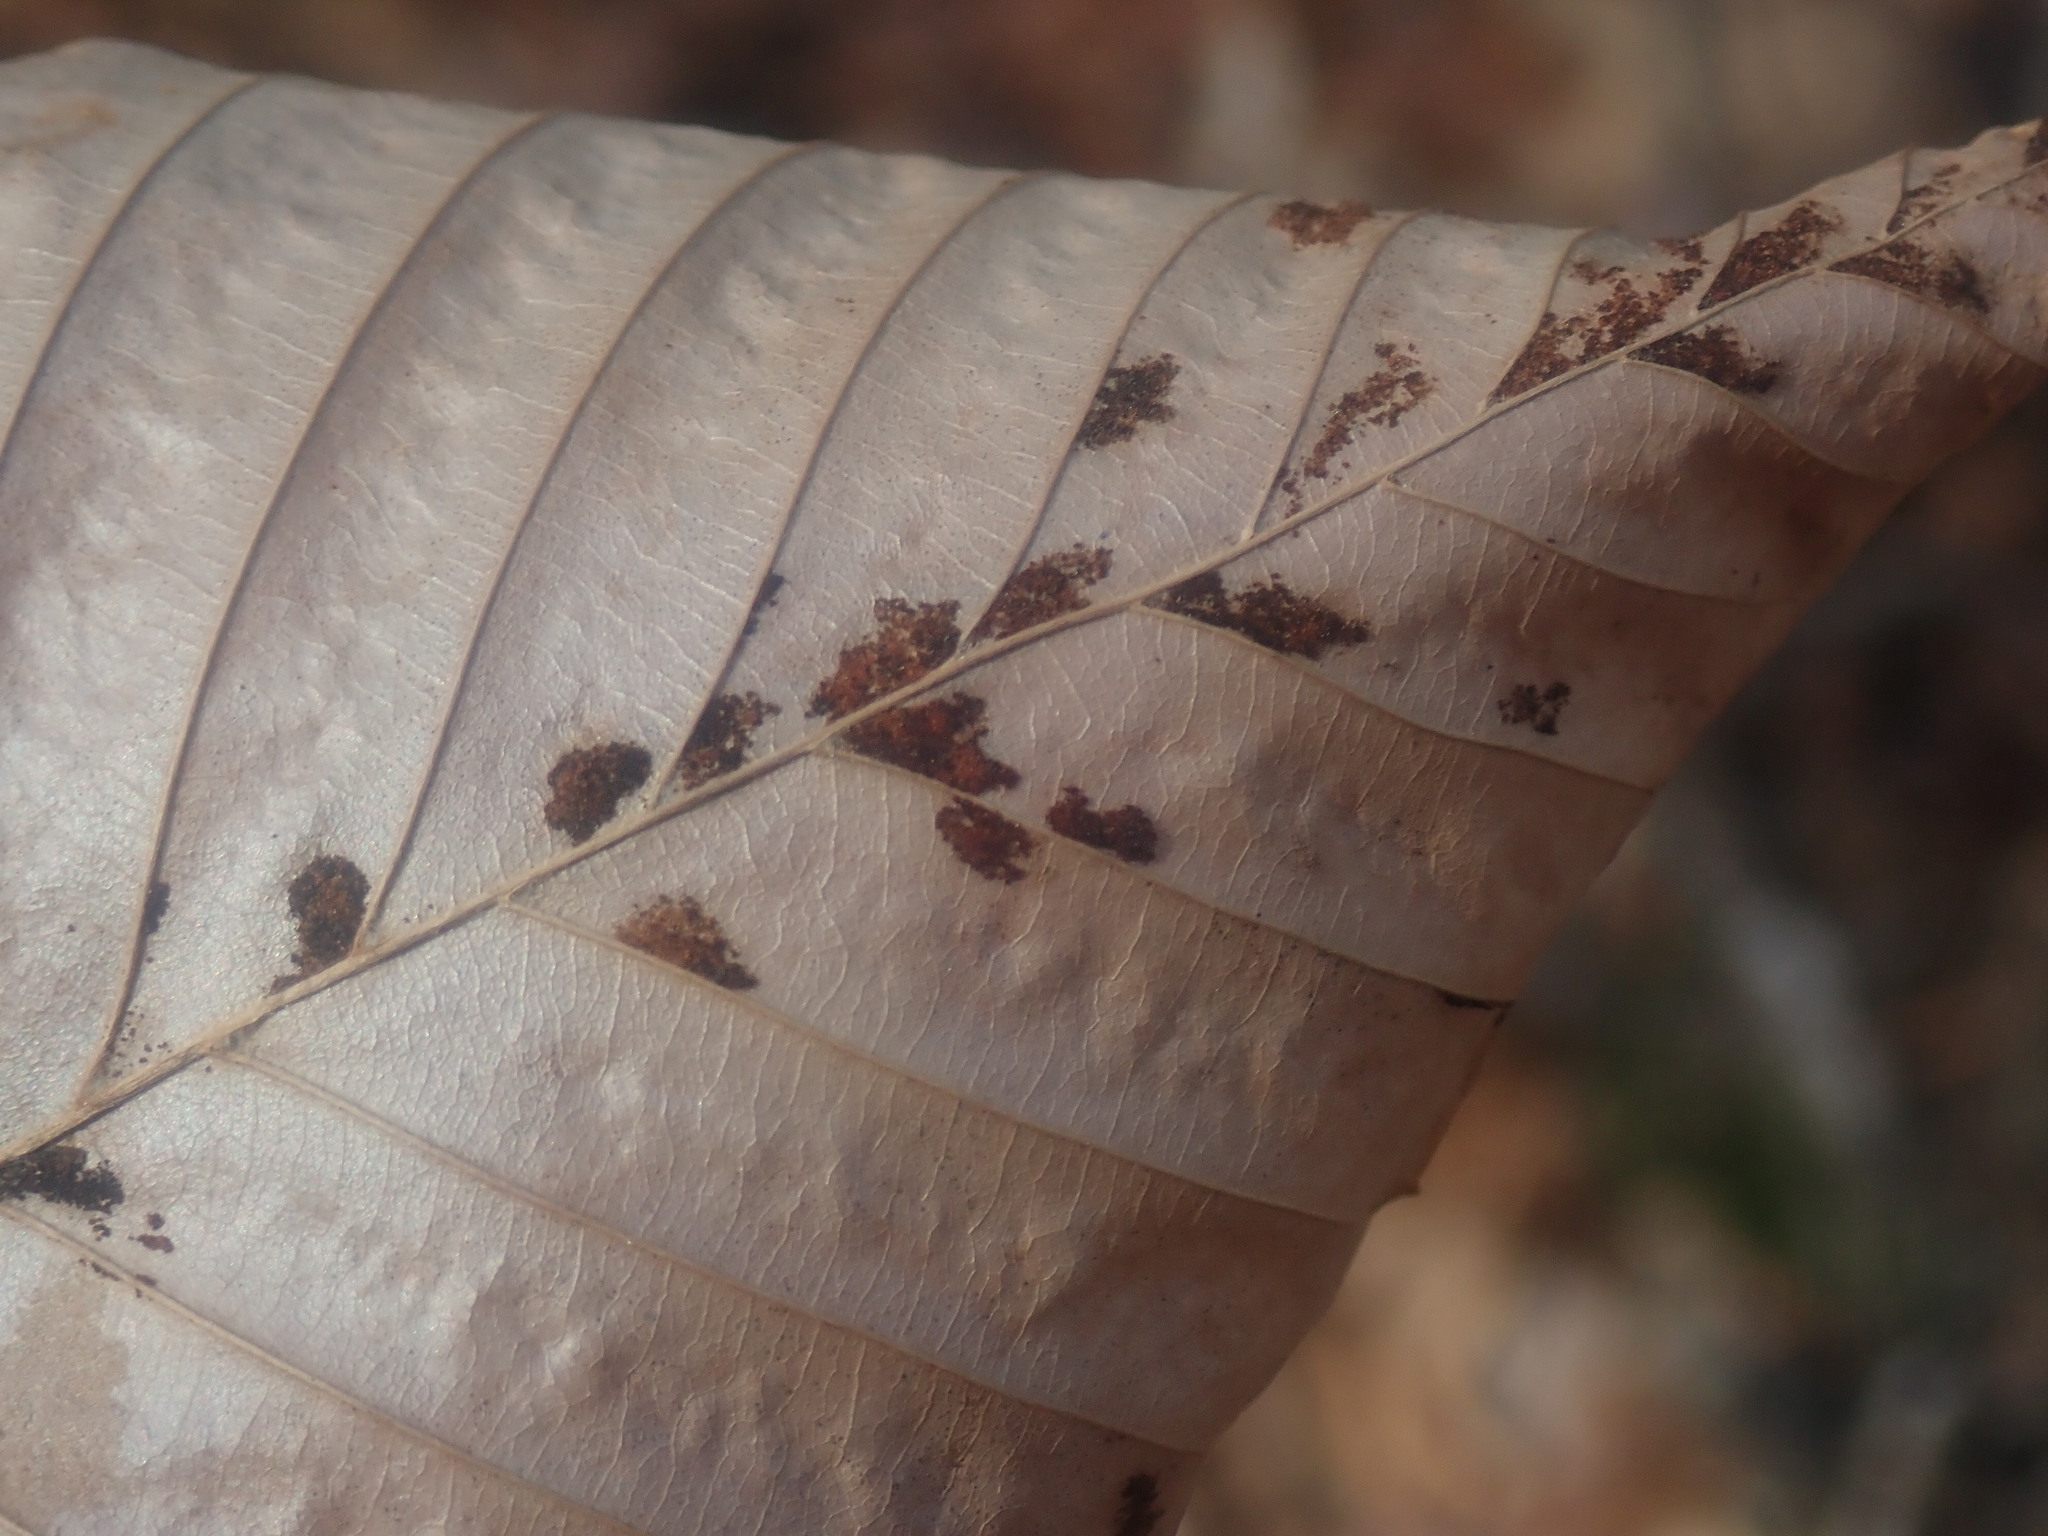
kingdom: Animalia
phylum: Arthropoda
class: Arachnida
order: Trombidiformes
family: Eriophyidae
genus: Acalitus
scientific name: Acalitus
